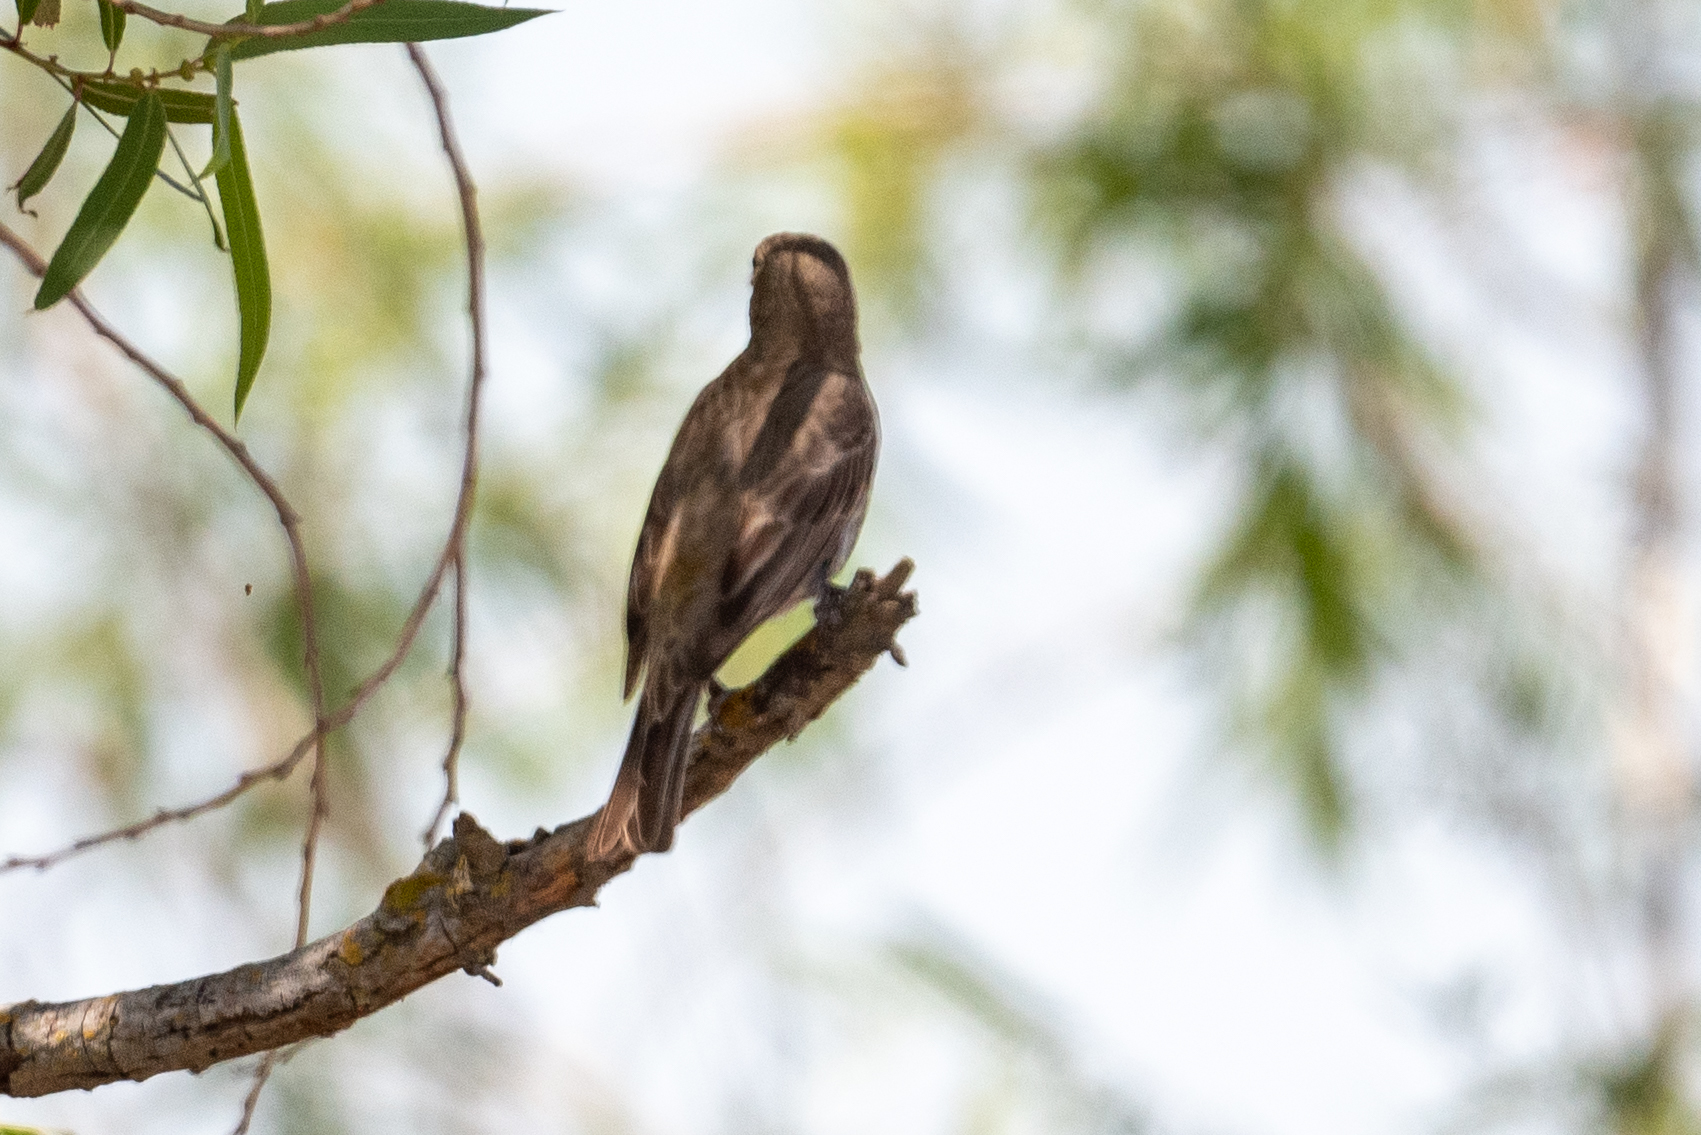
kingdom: Animalia
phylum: Chordata
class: Aves
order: Passeriformes
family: Fringillidae
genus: Haemorhous
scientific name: Haemorhous mexicanus
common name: House finch
